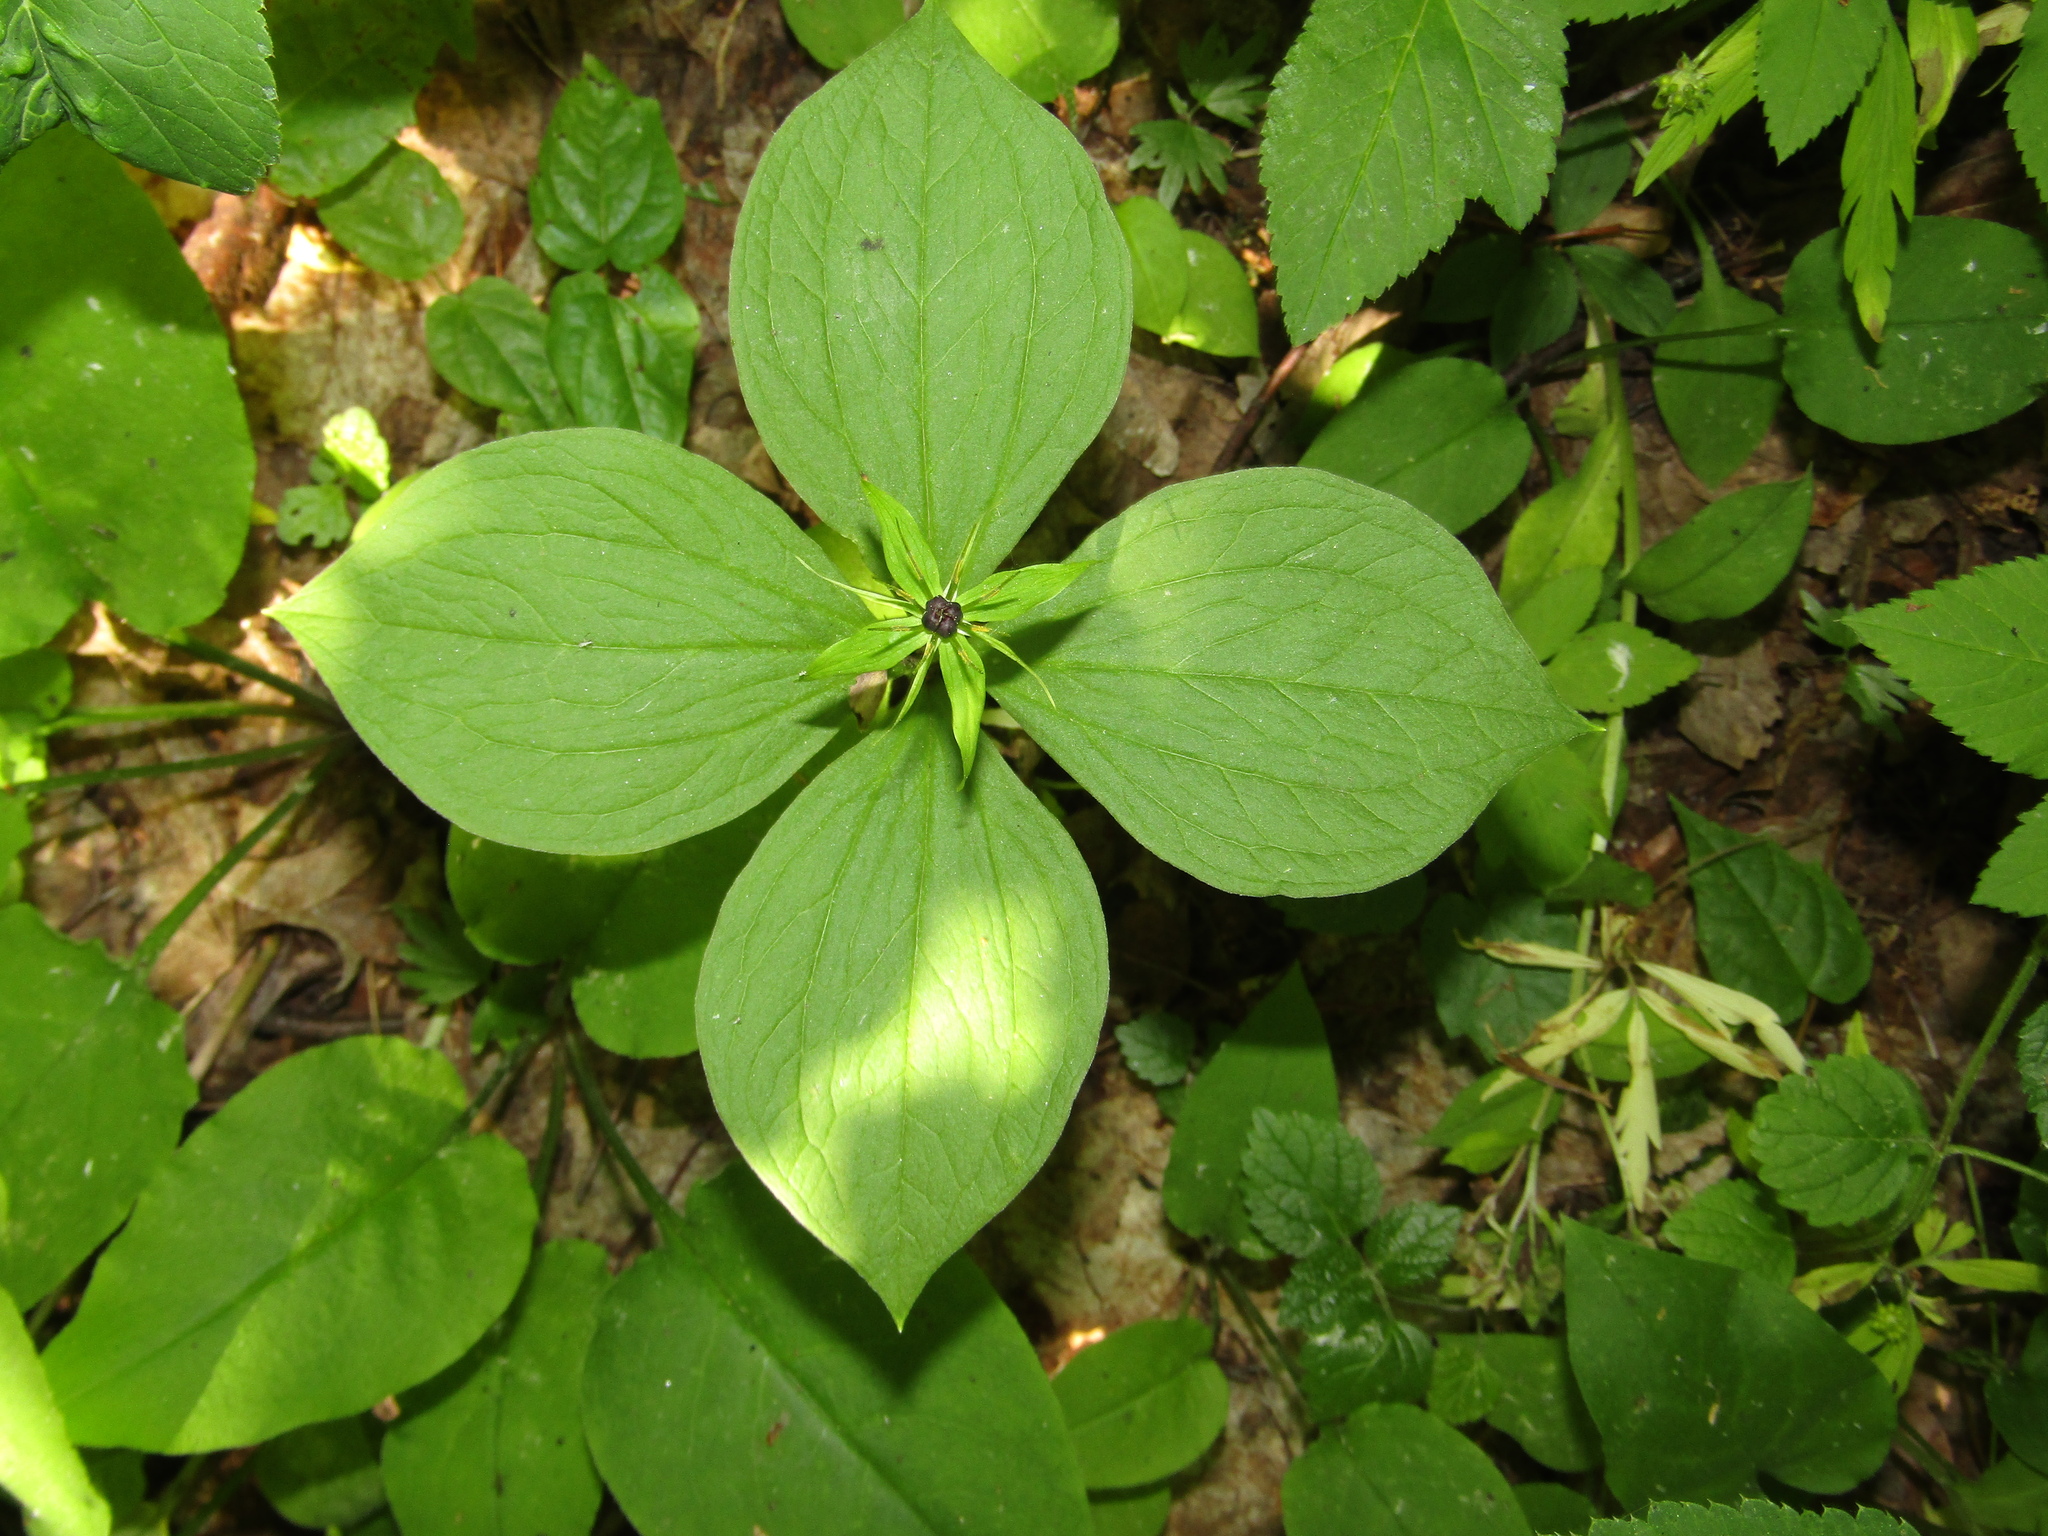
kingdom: Plantae
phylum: Tracheophyta
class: Liliopsida
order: Liliales
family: Melanthiaceae
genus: Paris
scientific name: Paris quadrifolia
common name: Herb-paris
